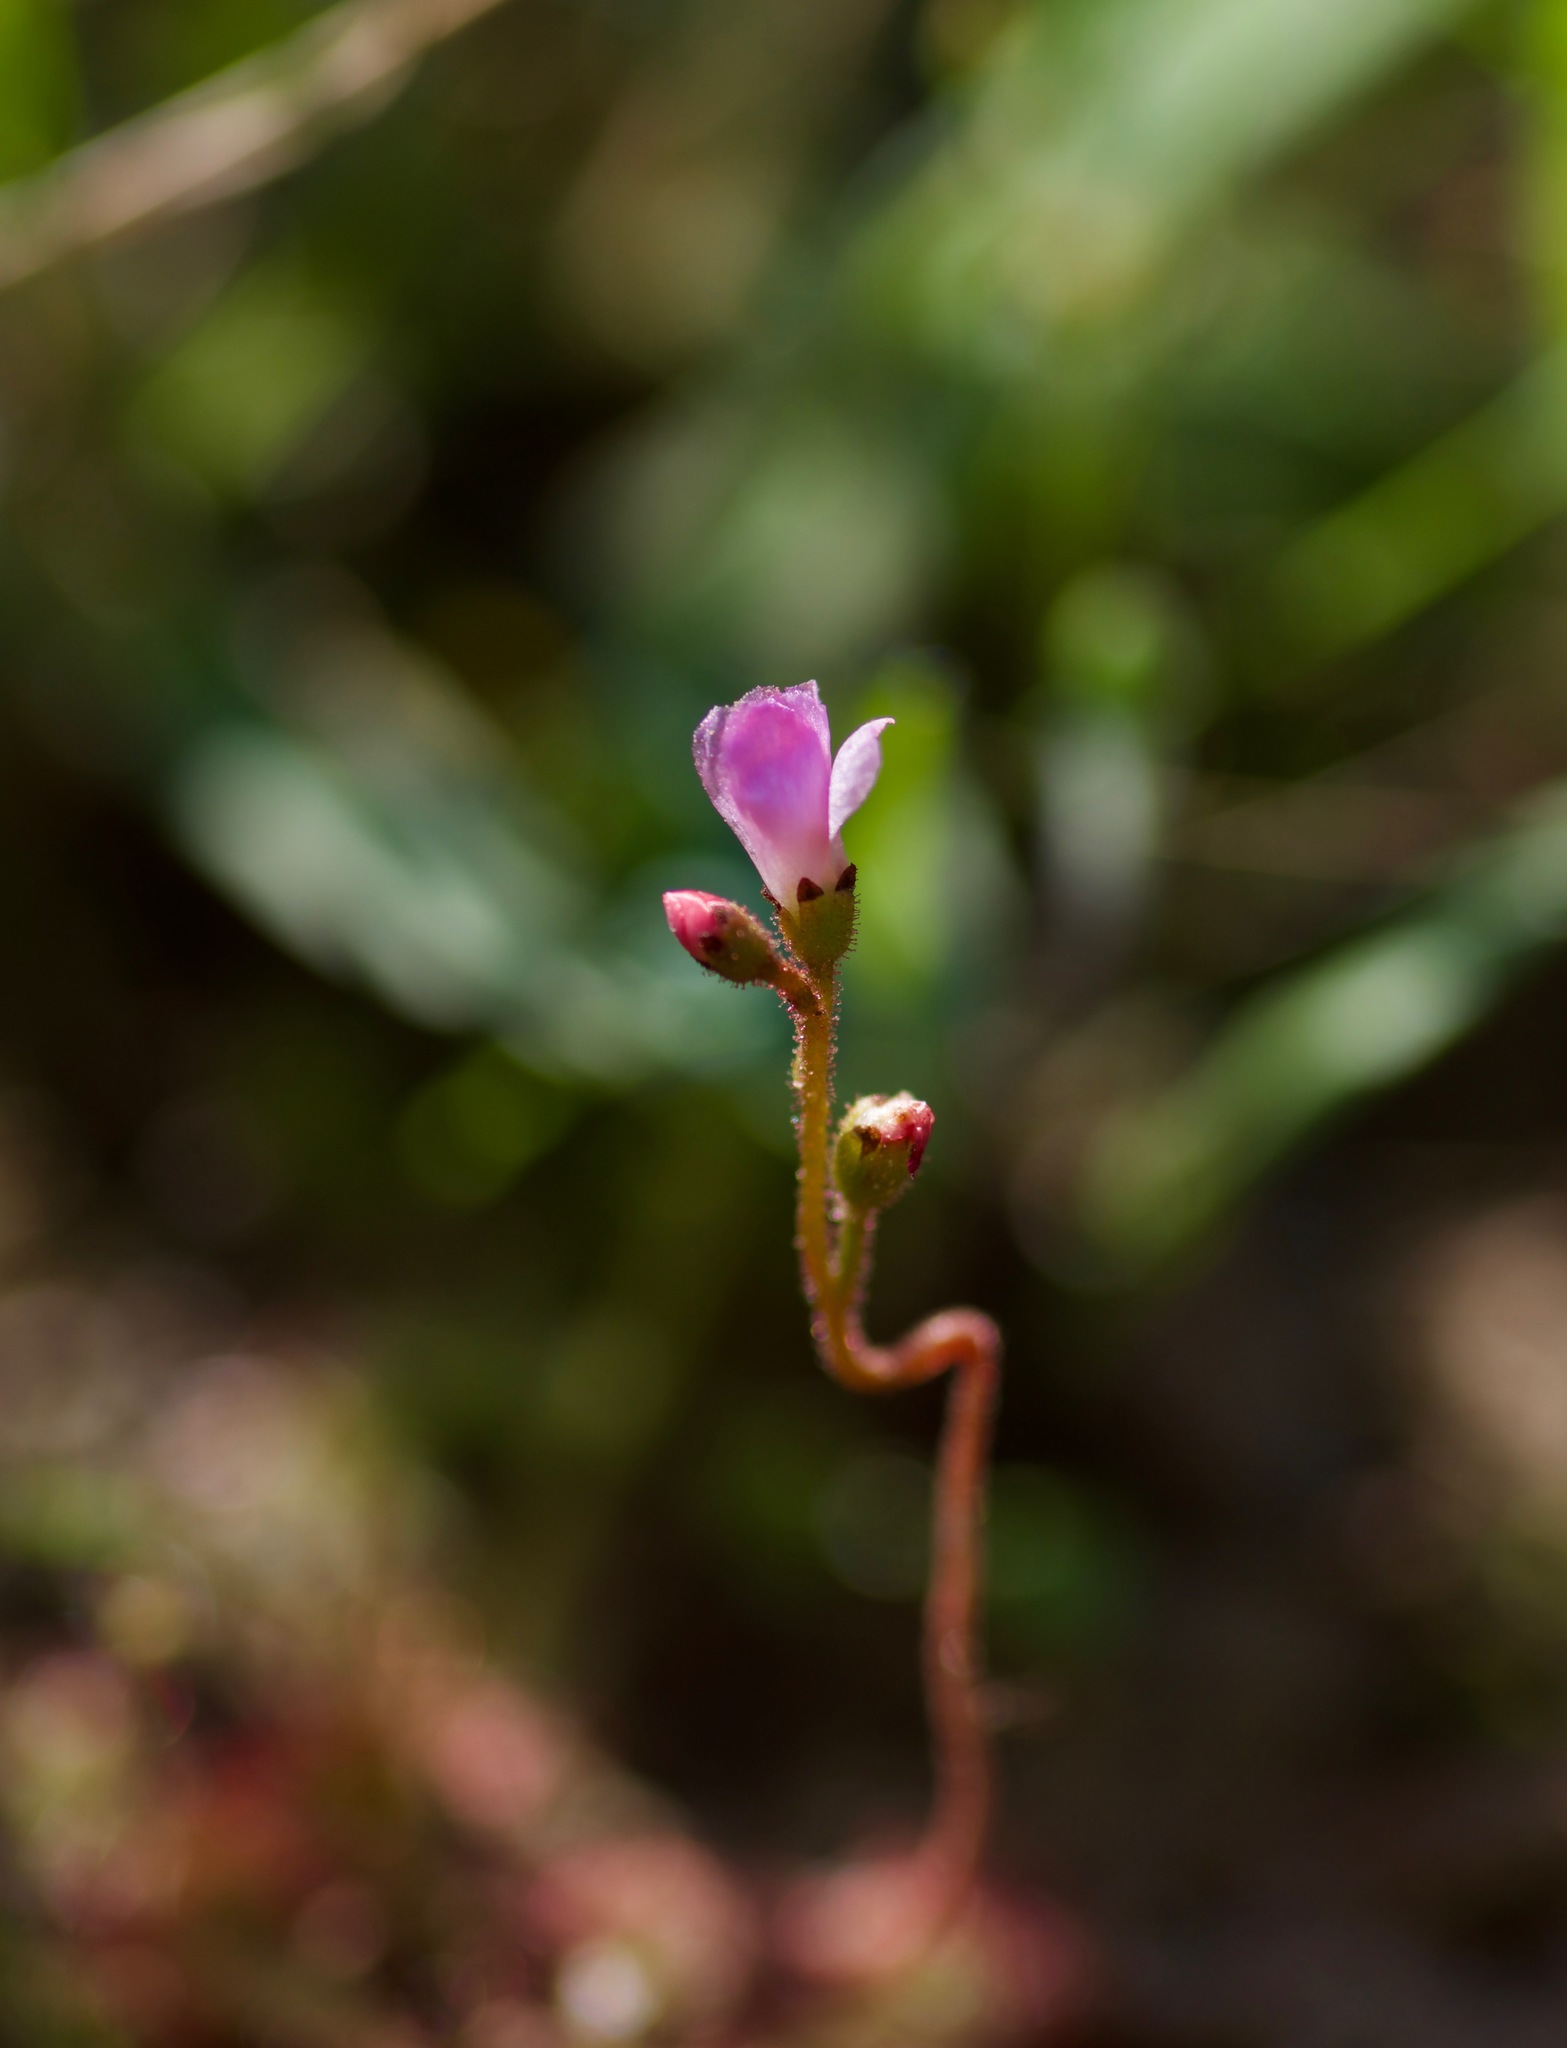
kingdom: Plantae
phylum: Tracheophyta
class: Magnoliopsida
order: Caryophyllales
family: Droseraceae
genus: Drosera
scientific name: Drosera brevifolia
